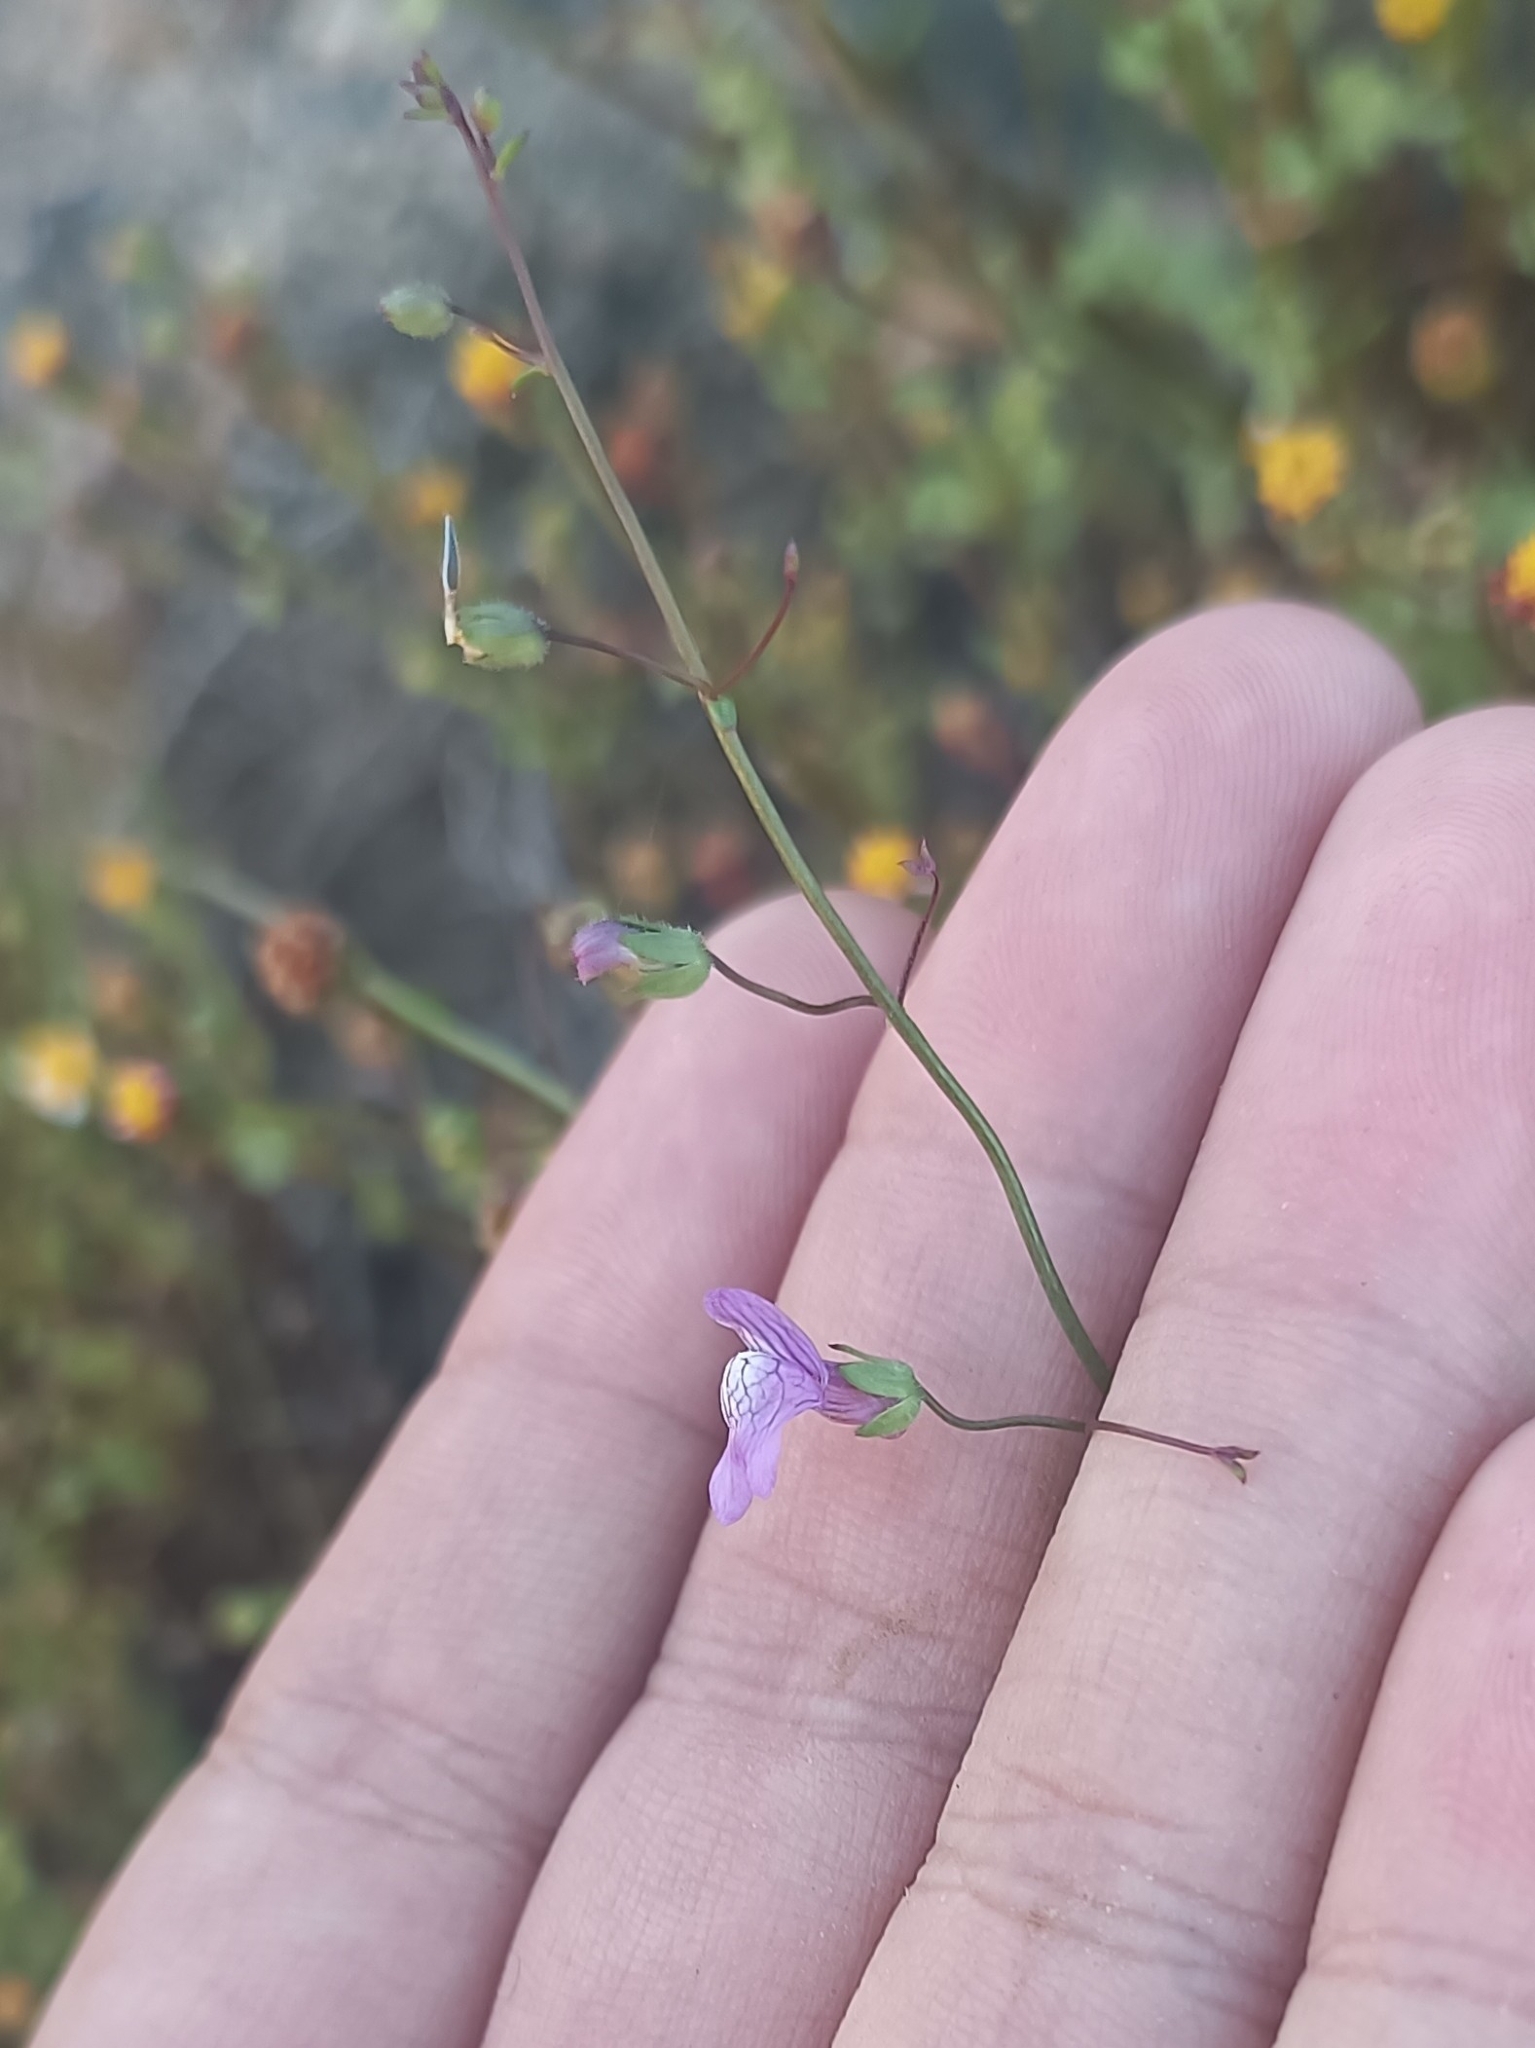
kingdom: Plantae
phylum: Tracheophyta
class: Magnoliopsida
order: Lamiales
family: Plantaginaceae
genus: Sairocarpus
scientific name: Sairocarpus nuttallianus
